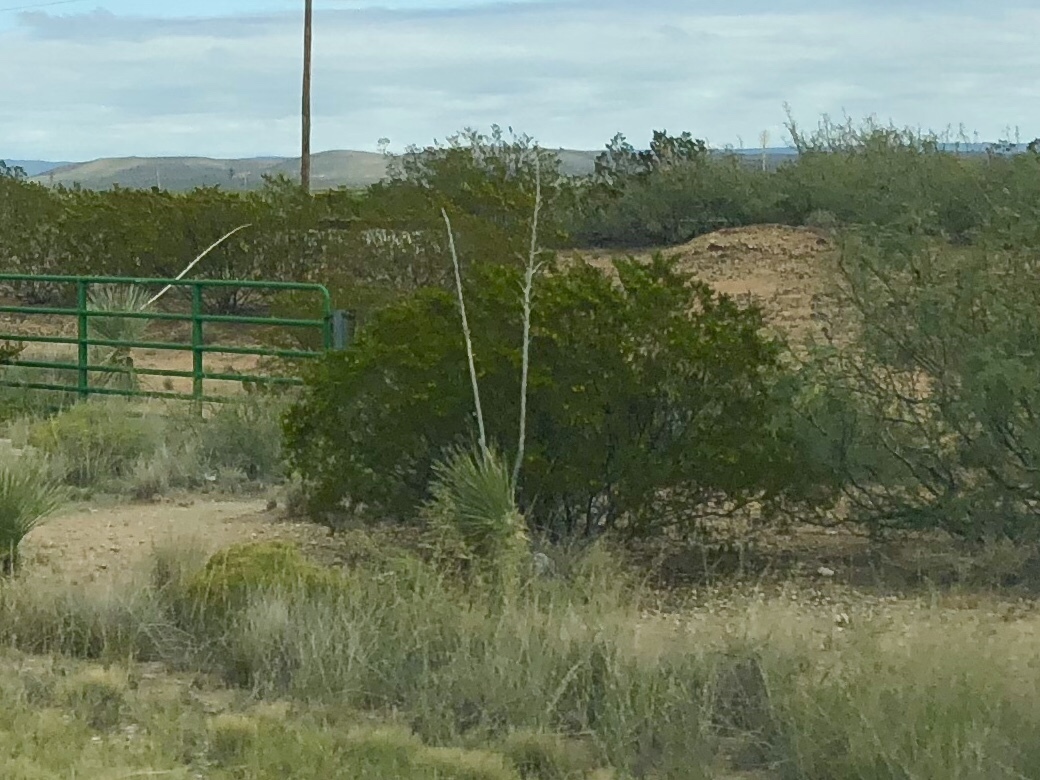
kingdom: Plantae
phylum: Tracheophyta
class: Magnoliopsida
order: Zygophyllales
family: Zygophyllaceae
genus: Larrea
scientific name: Larrea tridentata
